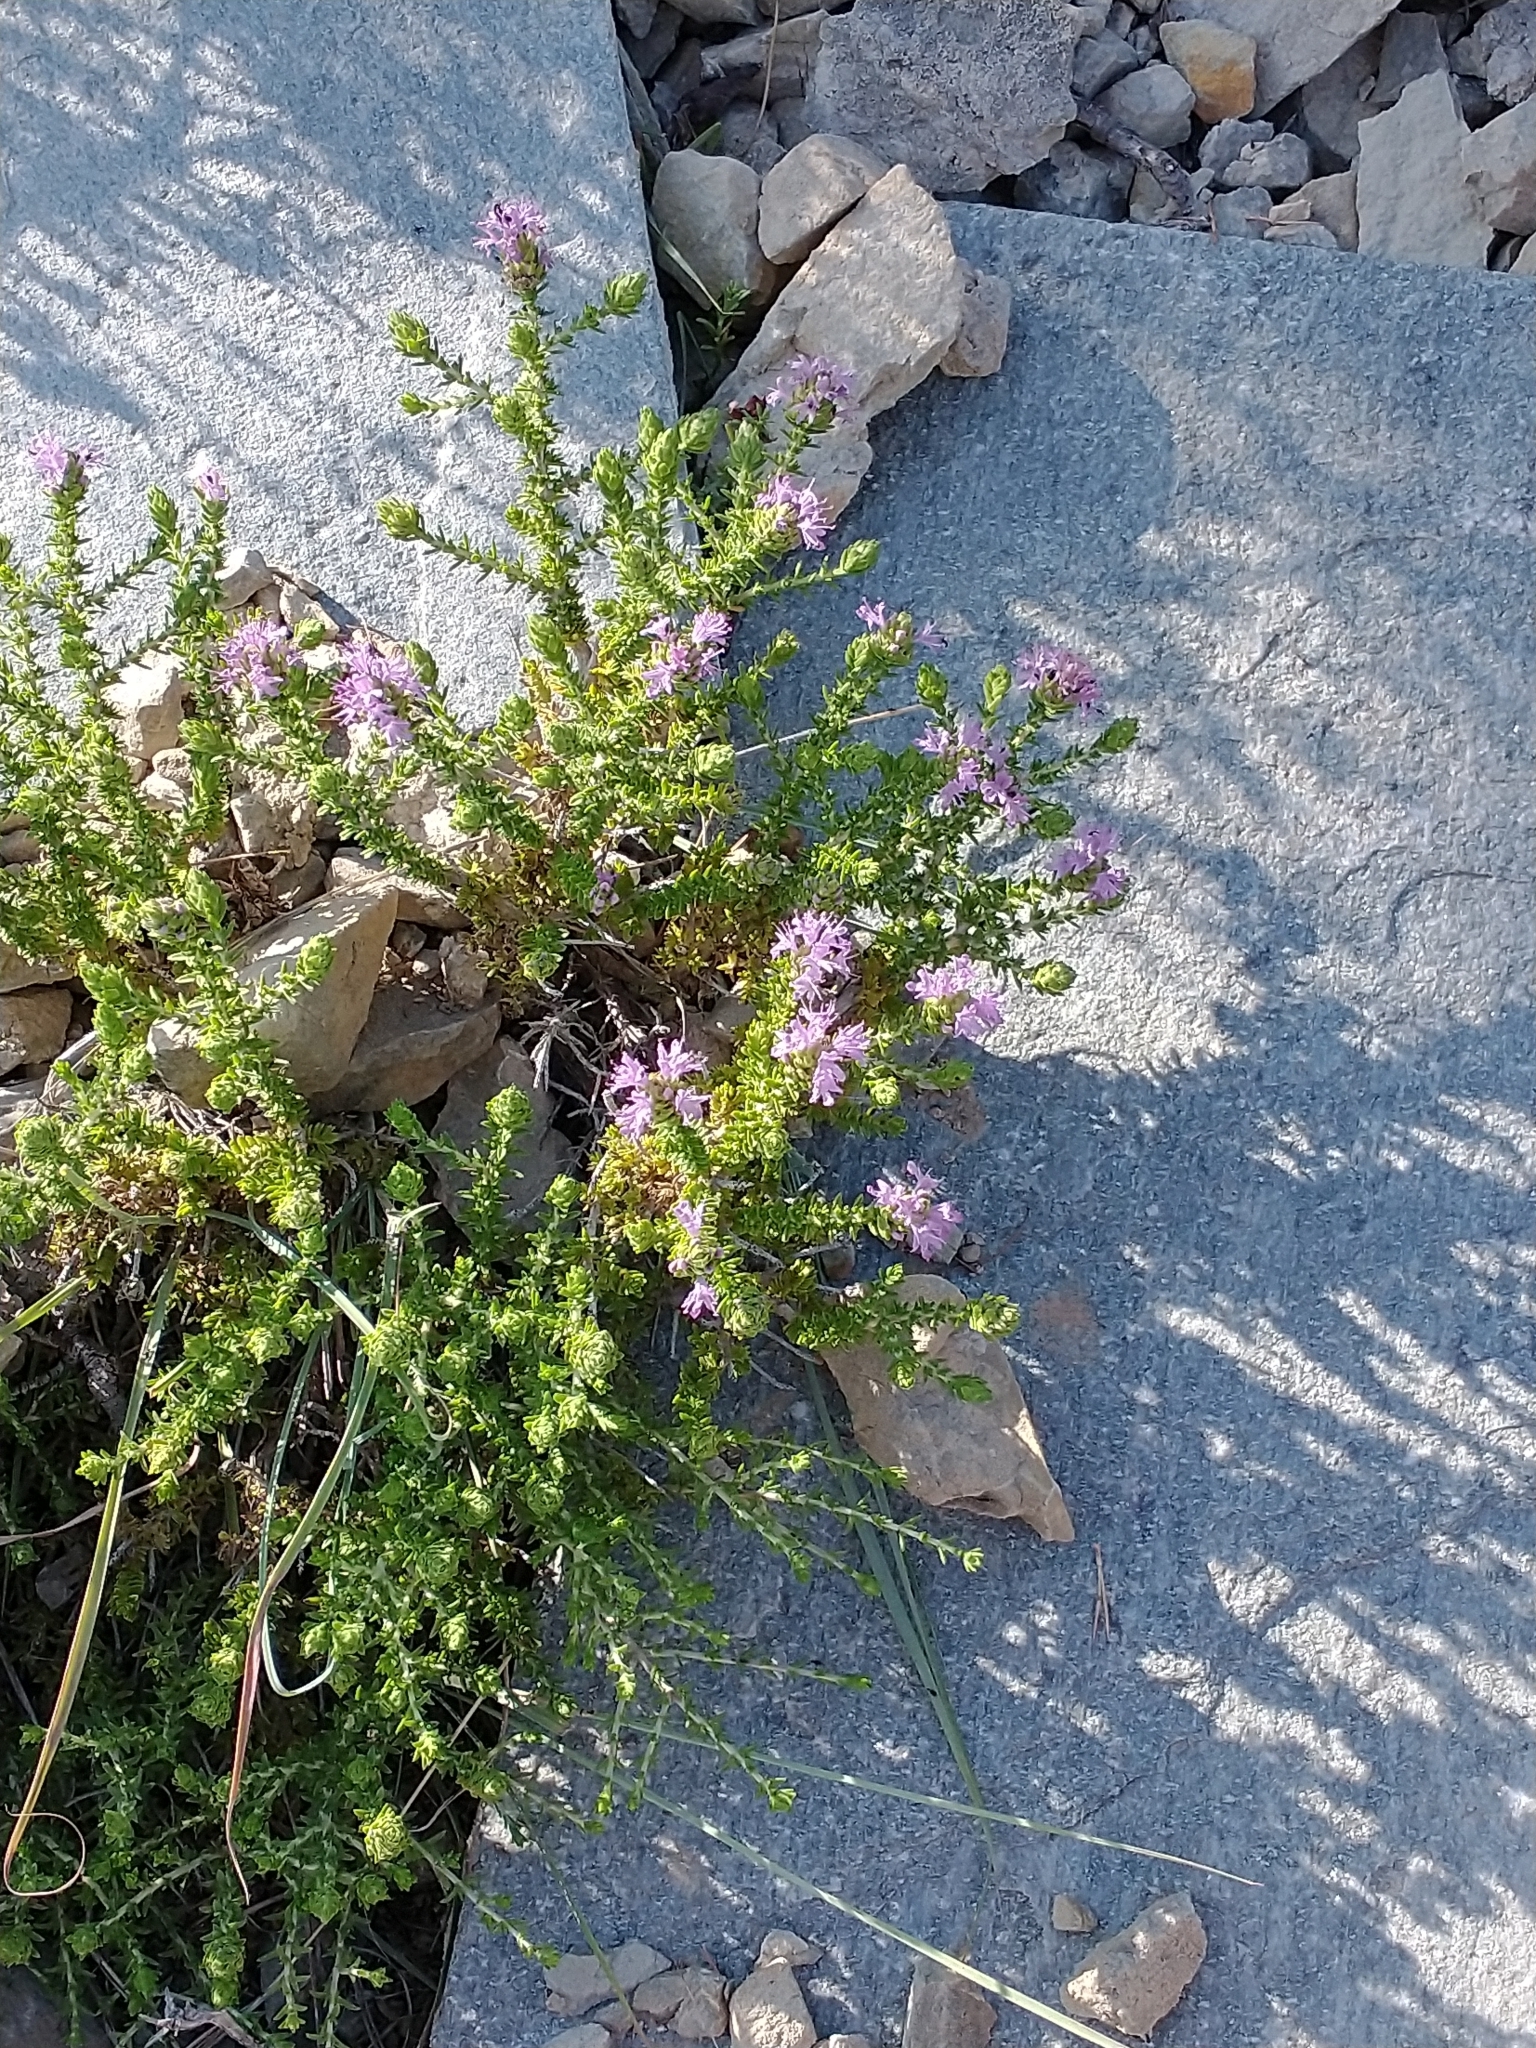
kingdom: Plantae
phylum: Tracheophyta
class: Magnoliopsida
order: Lamiales
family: Lamiaceae
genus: Thymbra
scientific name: Thymbra capitata
